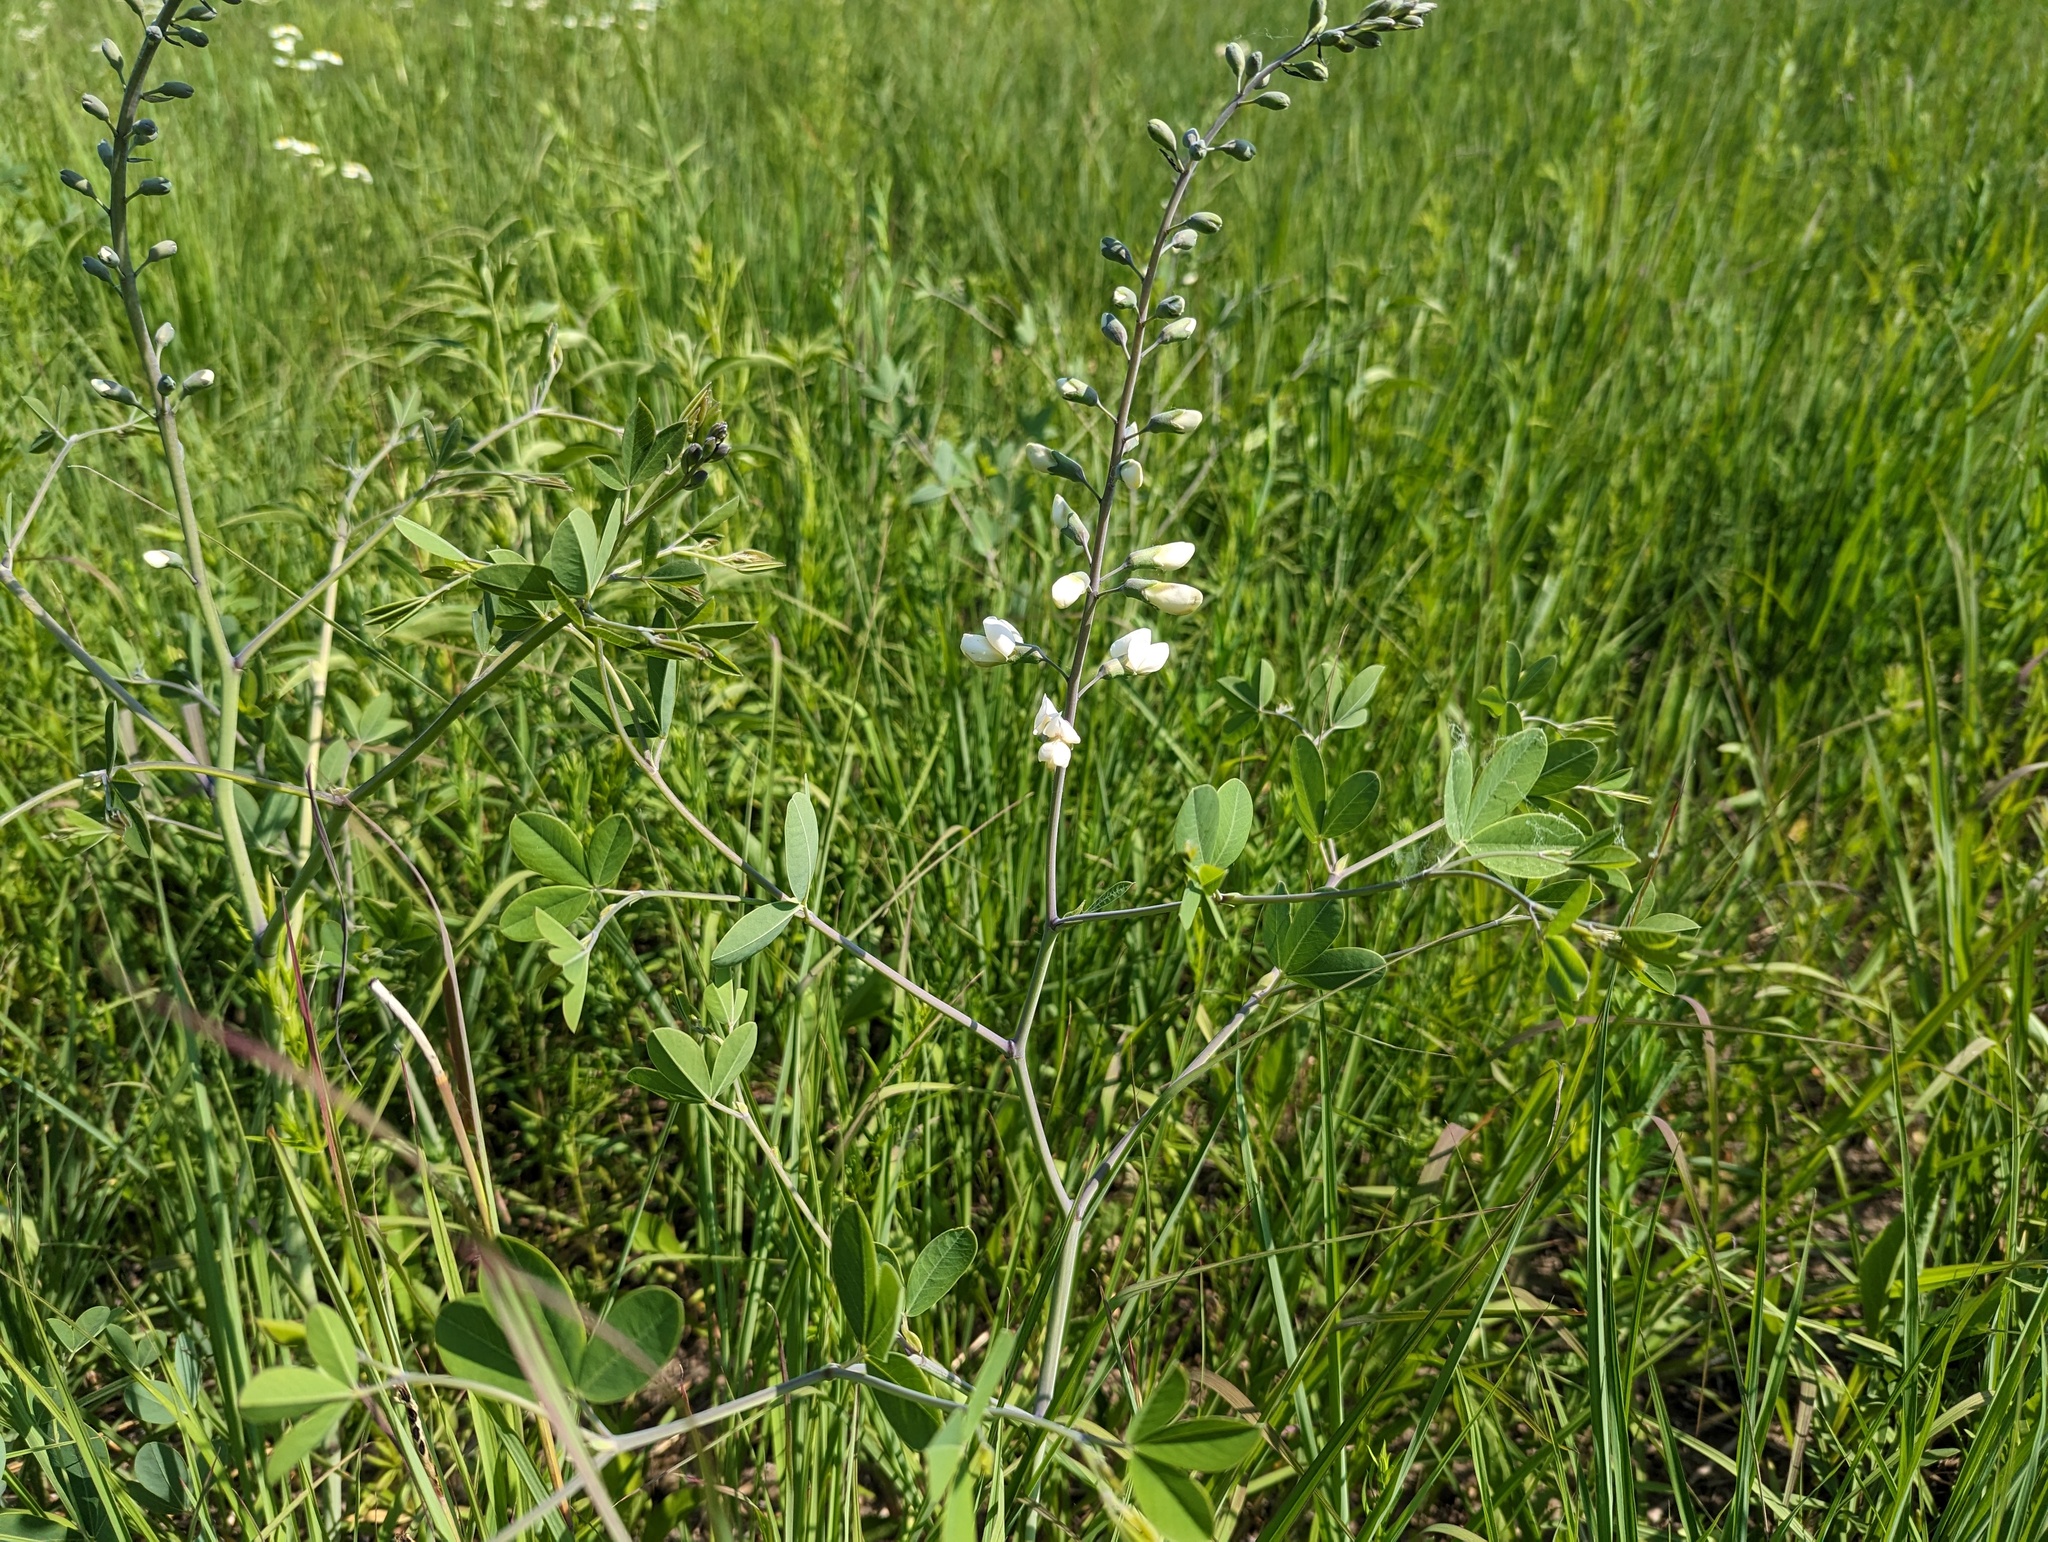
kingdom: Plantae
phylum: Tracheophyta
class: Magnoliopsida
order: Fabales
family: Fabaceae
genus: Baptisia
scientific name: Baptisia alba
